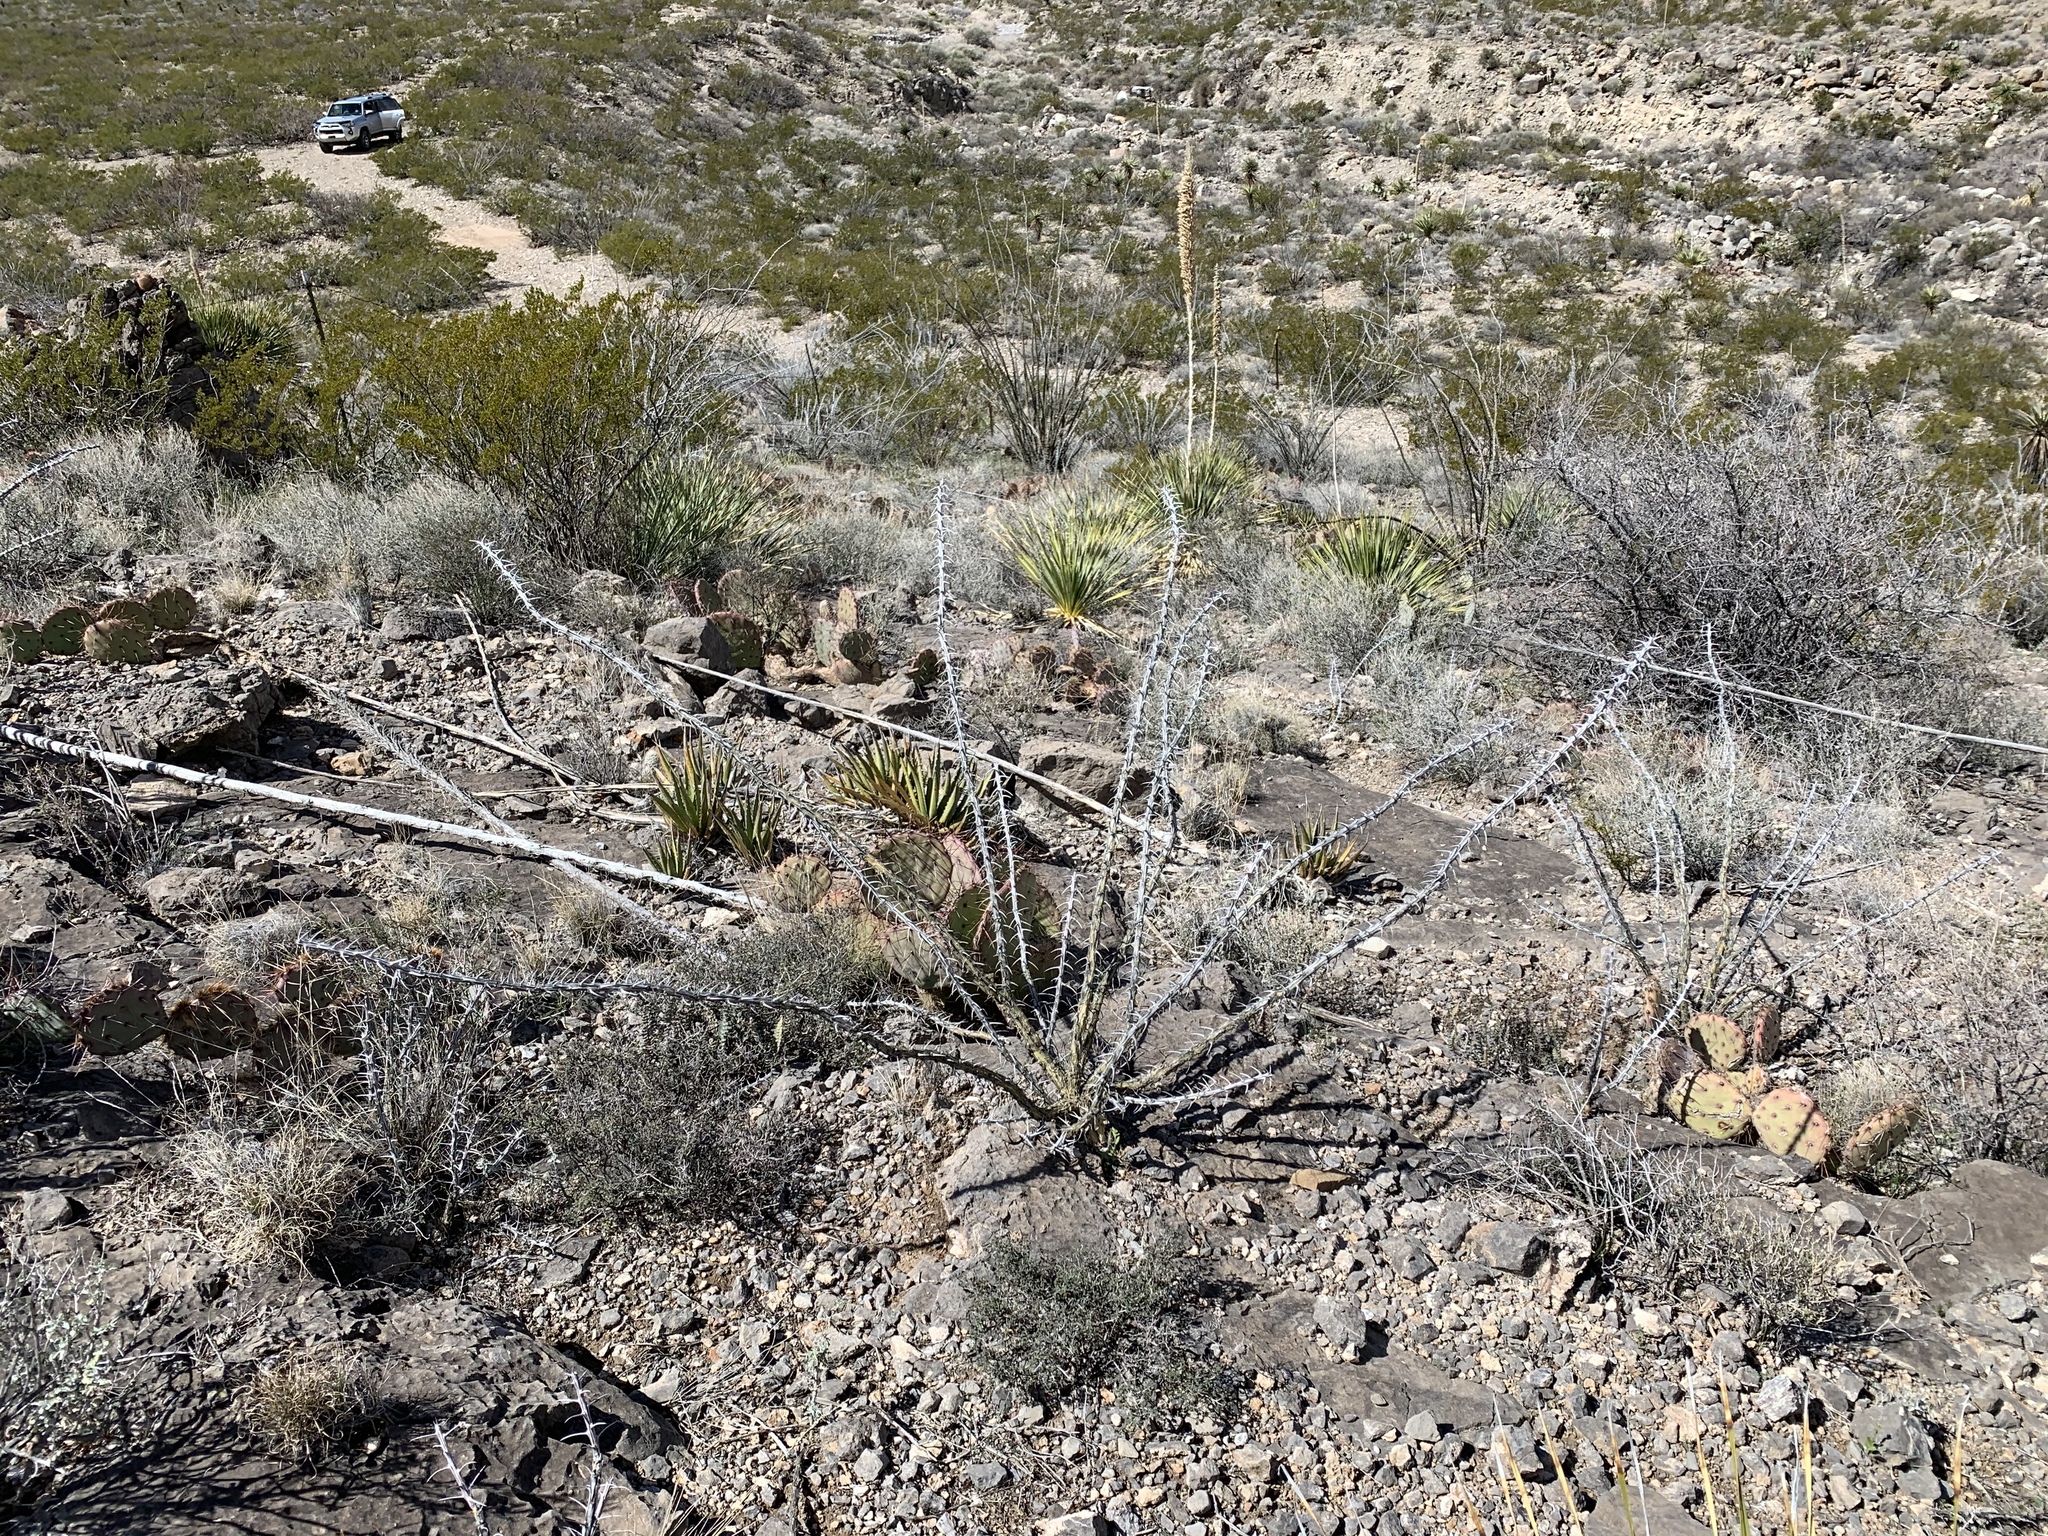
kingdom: Plantae
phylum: Tracheophyta
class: Magnoliopsida
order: Ericales
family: Fouquieriaceae
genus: Fouquieria
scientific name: Fouquieria splendens
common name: Vine-cactus
